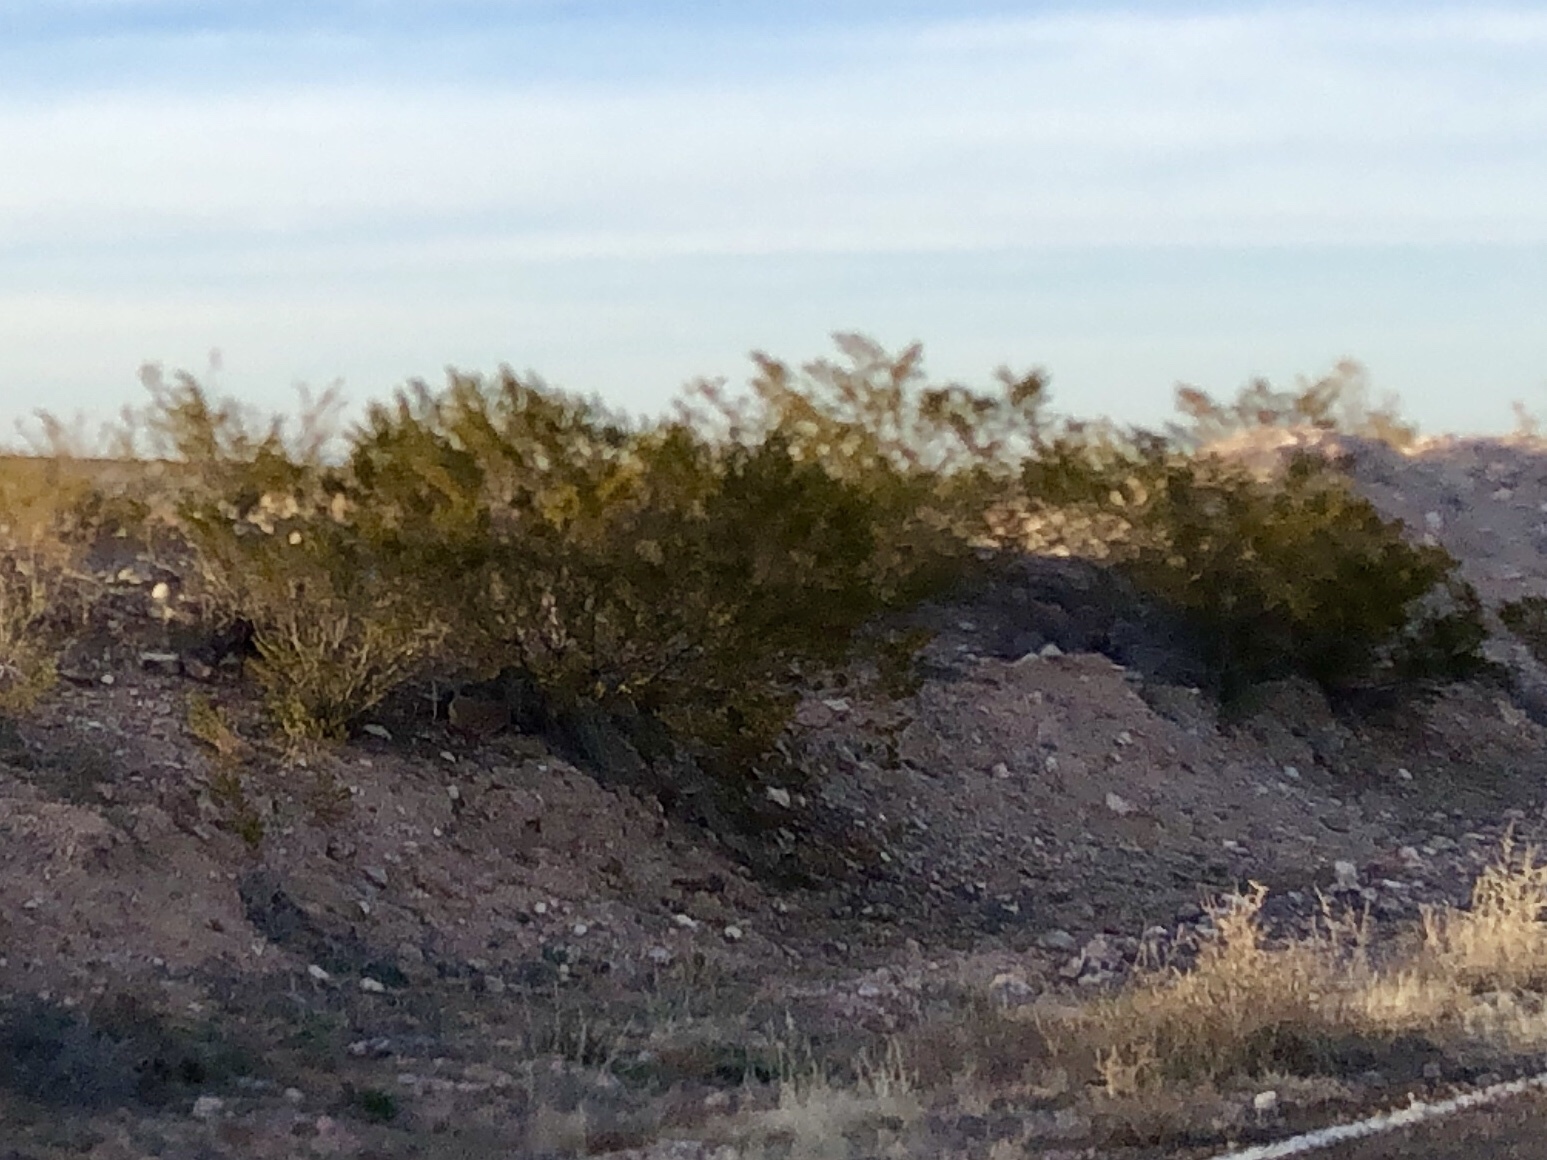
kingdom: Plantae
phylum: Tracheophyta
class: Magnoliopsida
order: Zygophyllales
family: Zygophyllaceae
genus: Larrea
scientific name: Larrea tridentata
